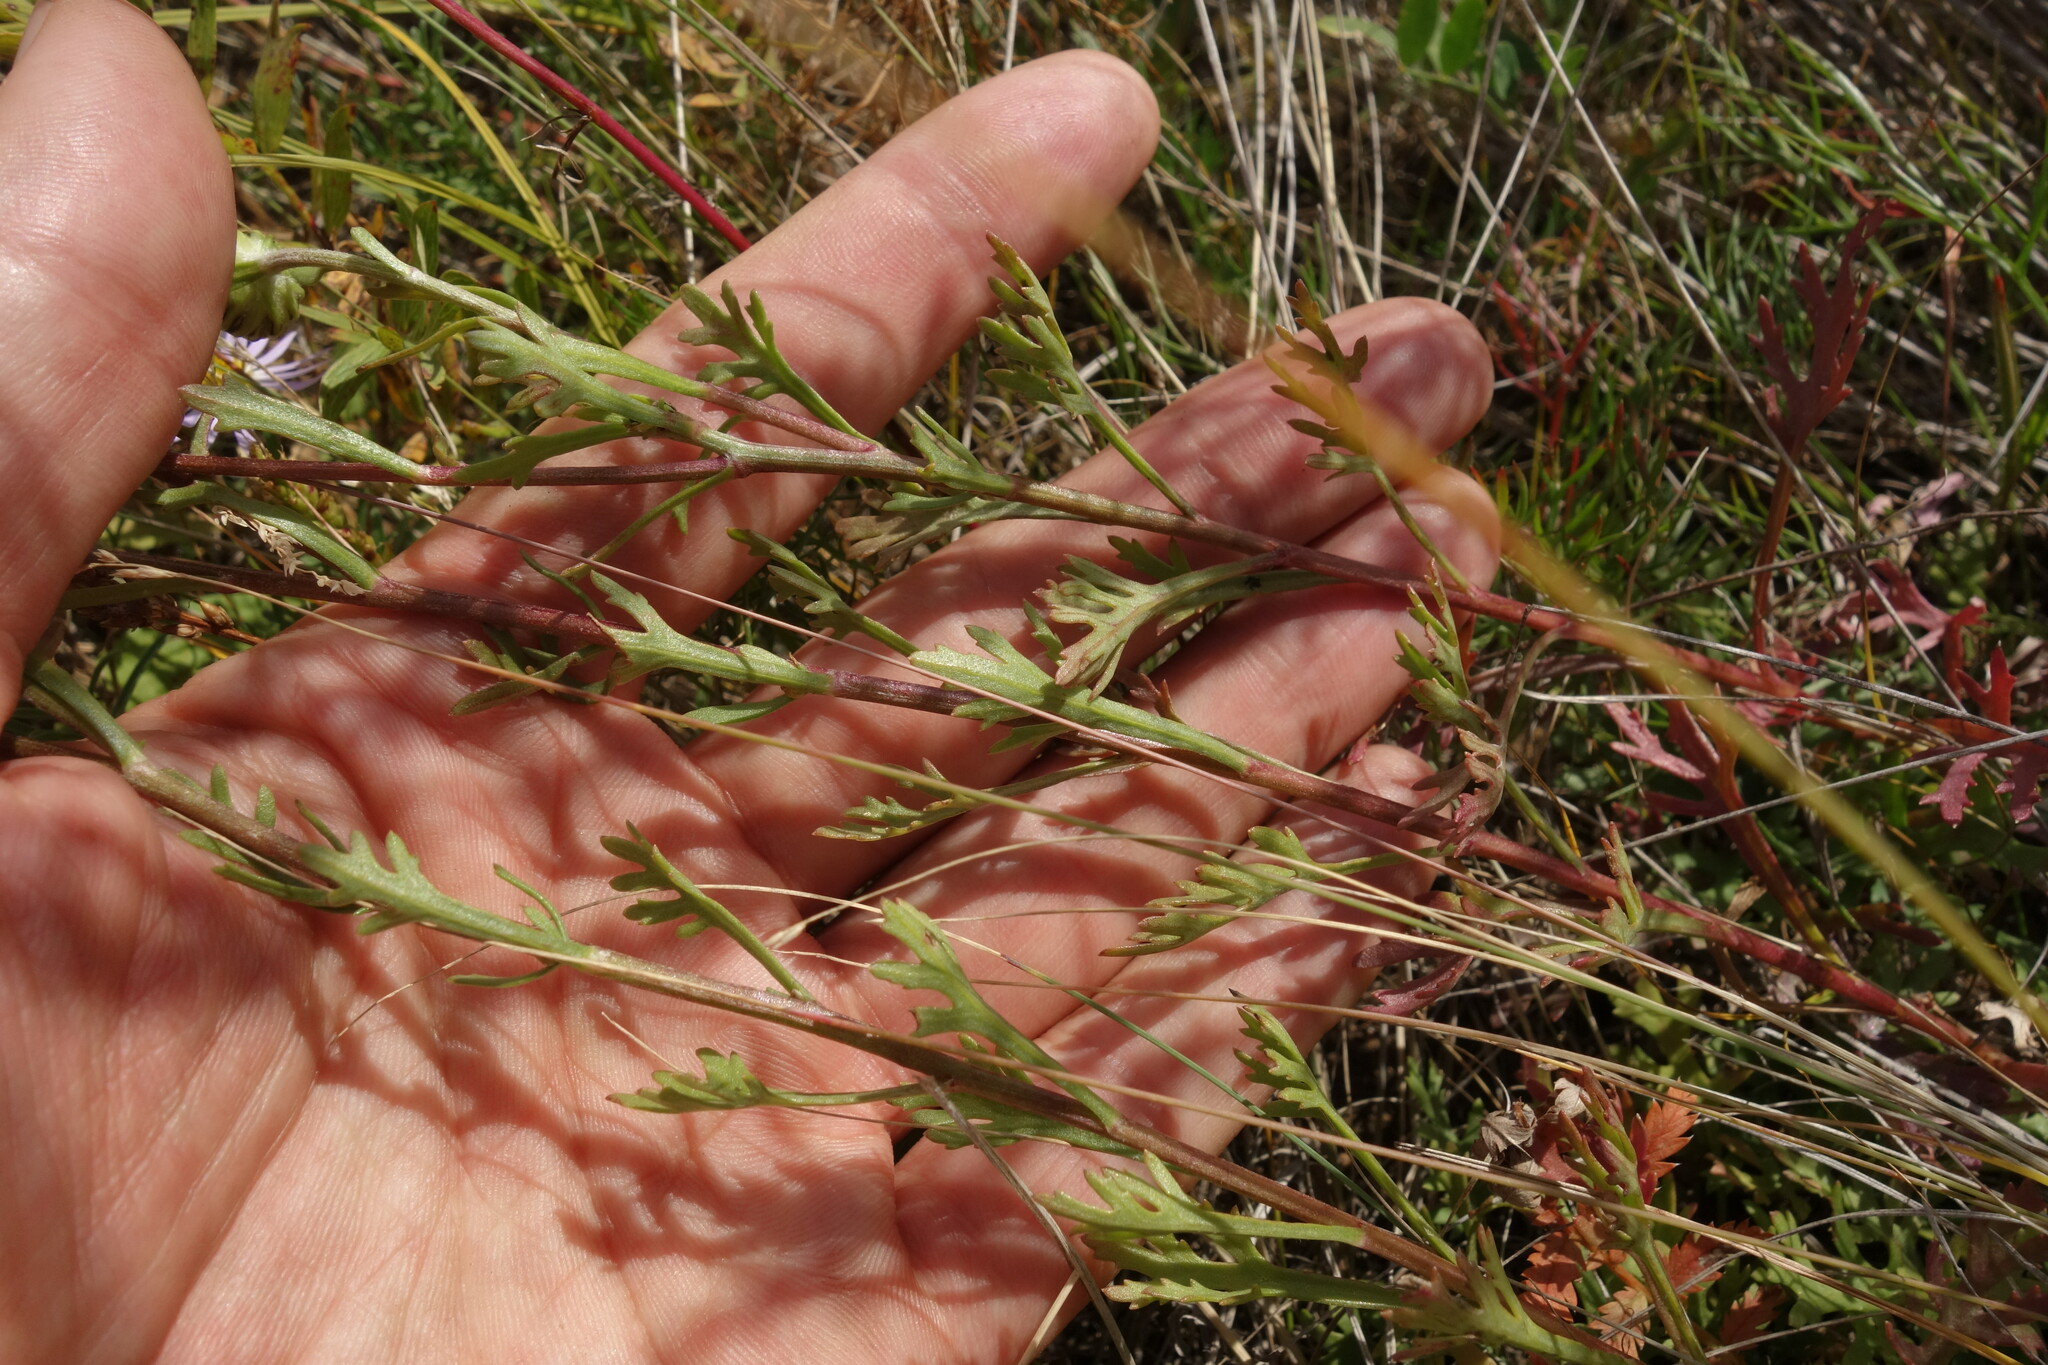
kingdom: Plantae
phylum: Tracheophyta
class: Magnoliopsida
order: Asterales
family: Asteraceae
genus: Chrysanthemum
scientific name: Chrysanthemum zawadzkii
